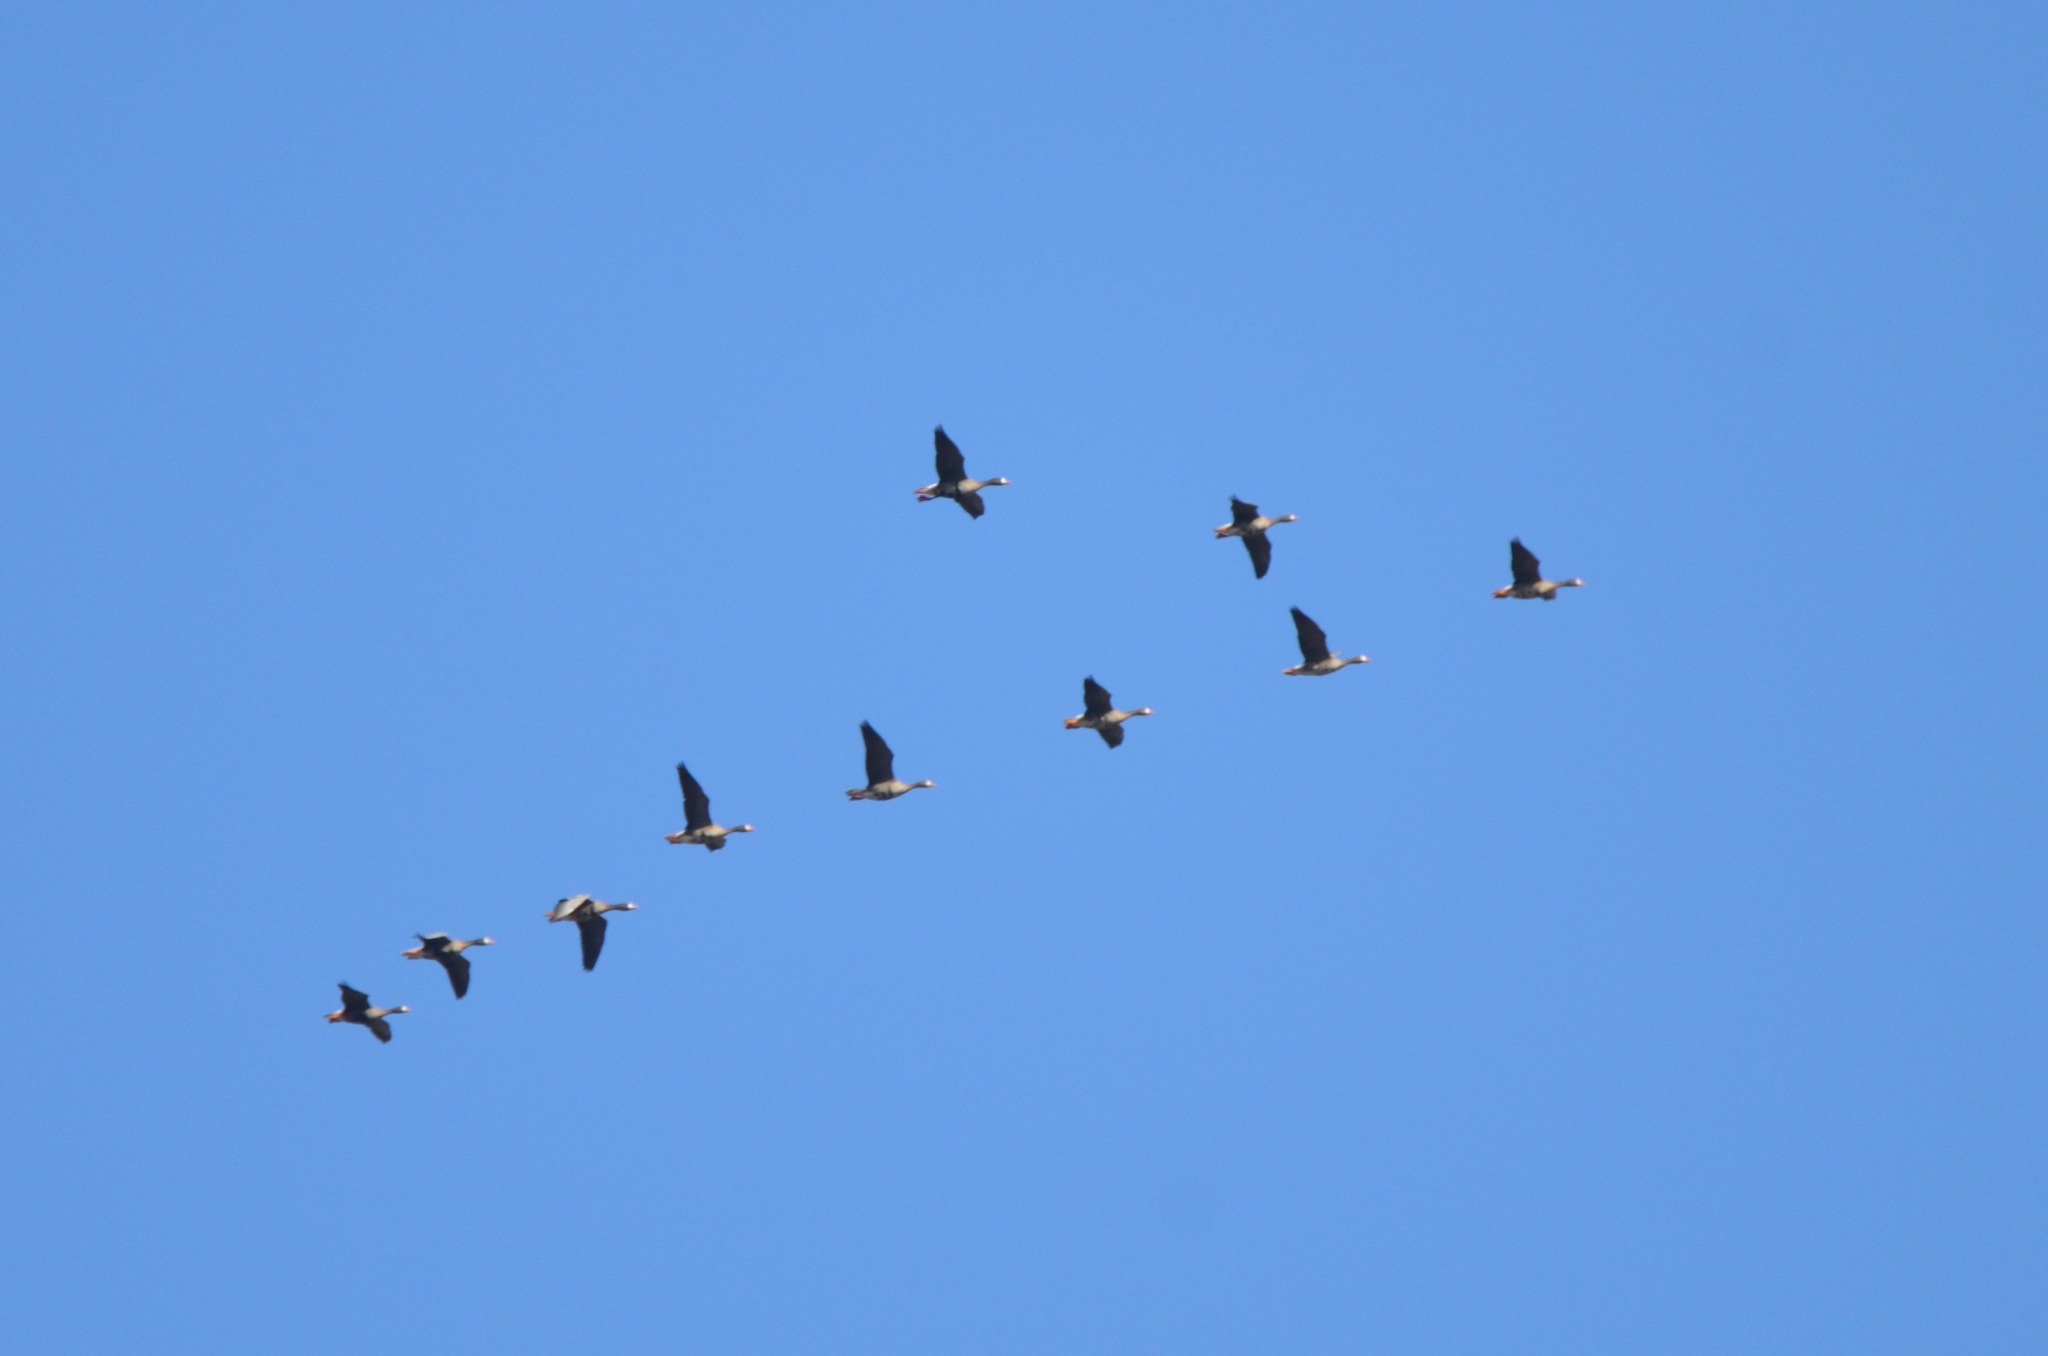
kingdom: Animalia
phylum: Chordata
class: Aves
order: Anseriformes
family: Anatidae
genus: Anser
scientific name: Anser albifrons
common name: Greater white-fronted goose
